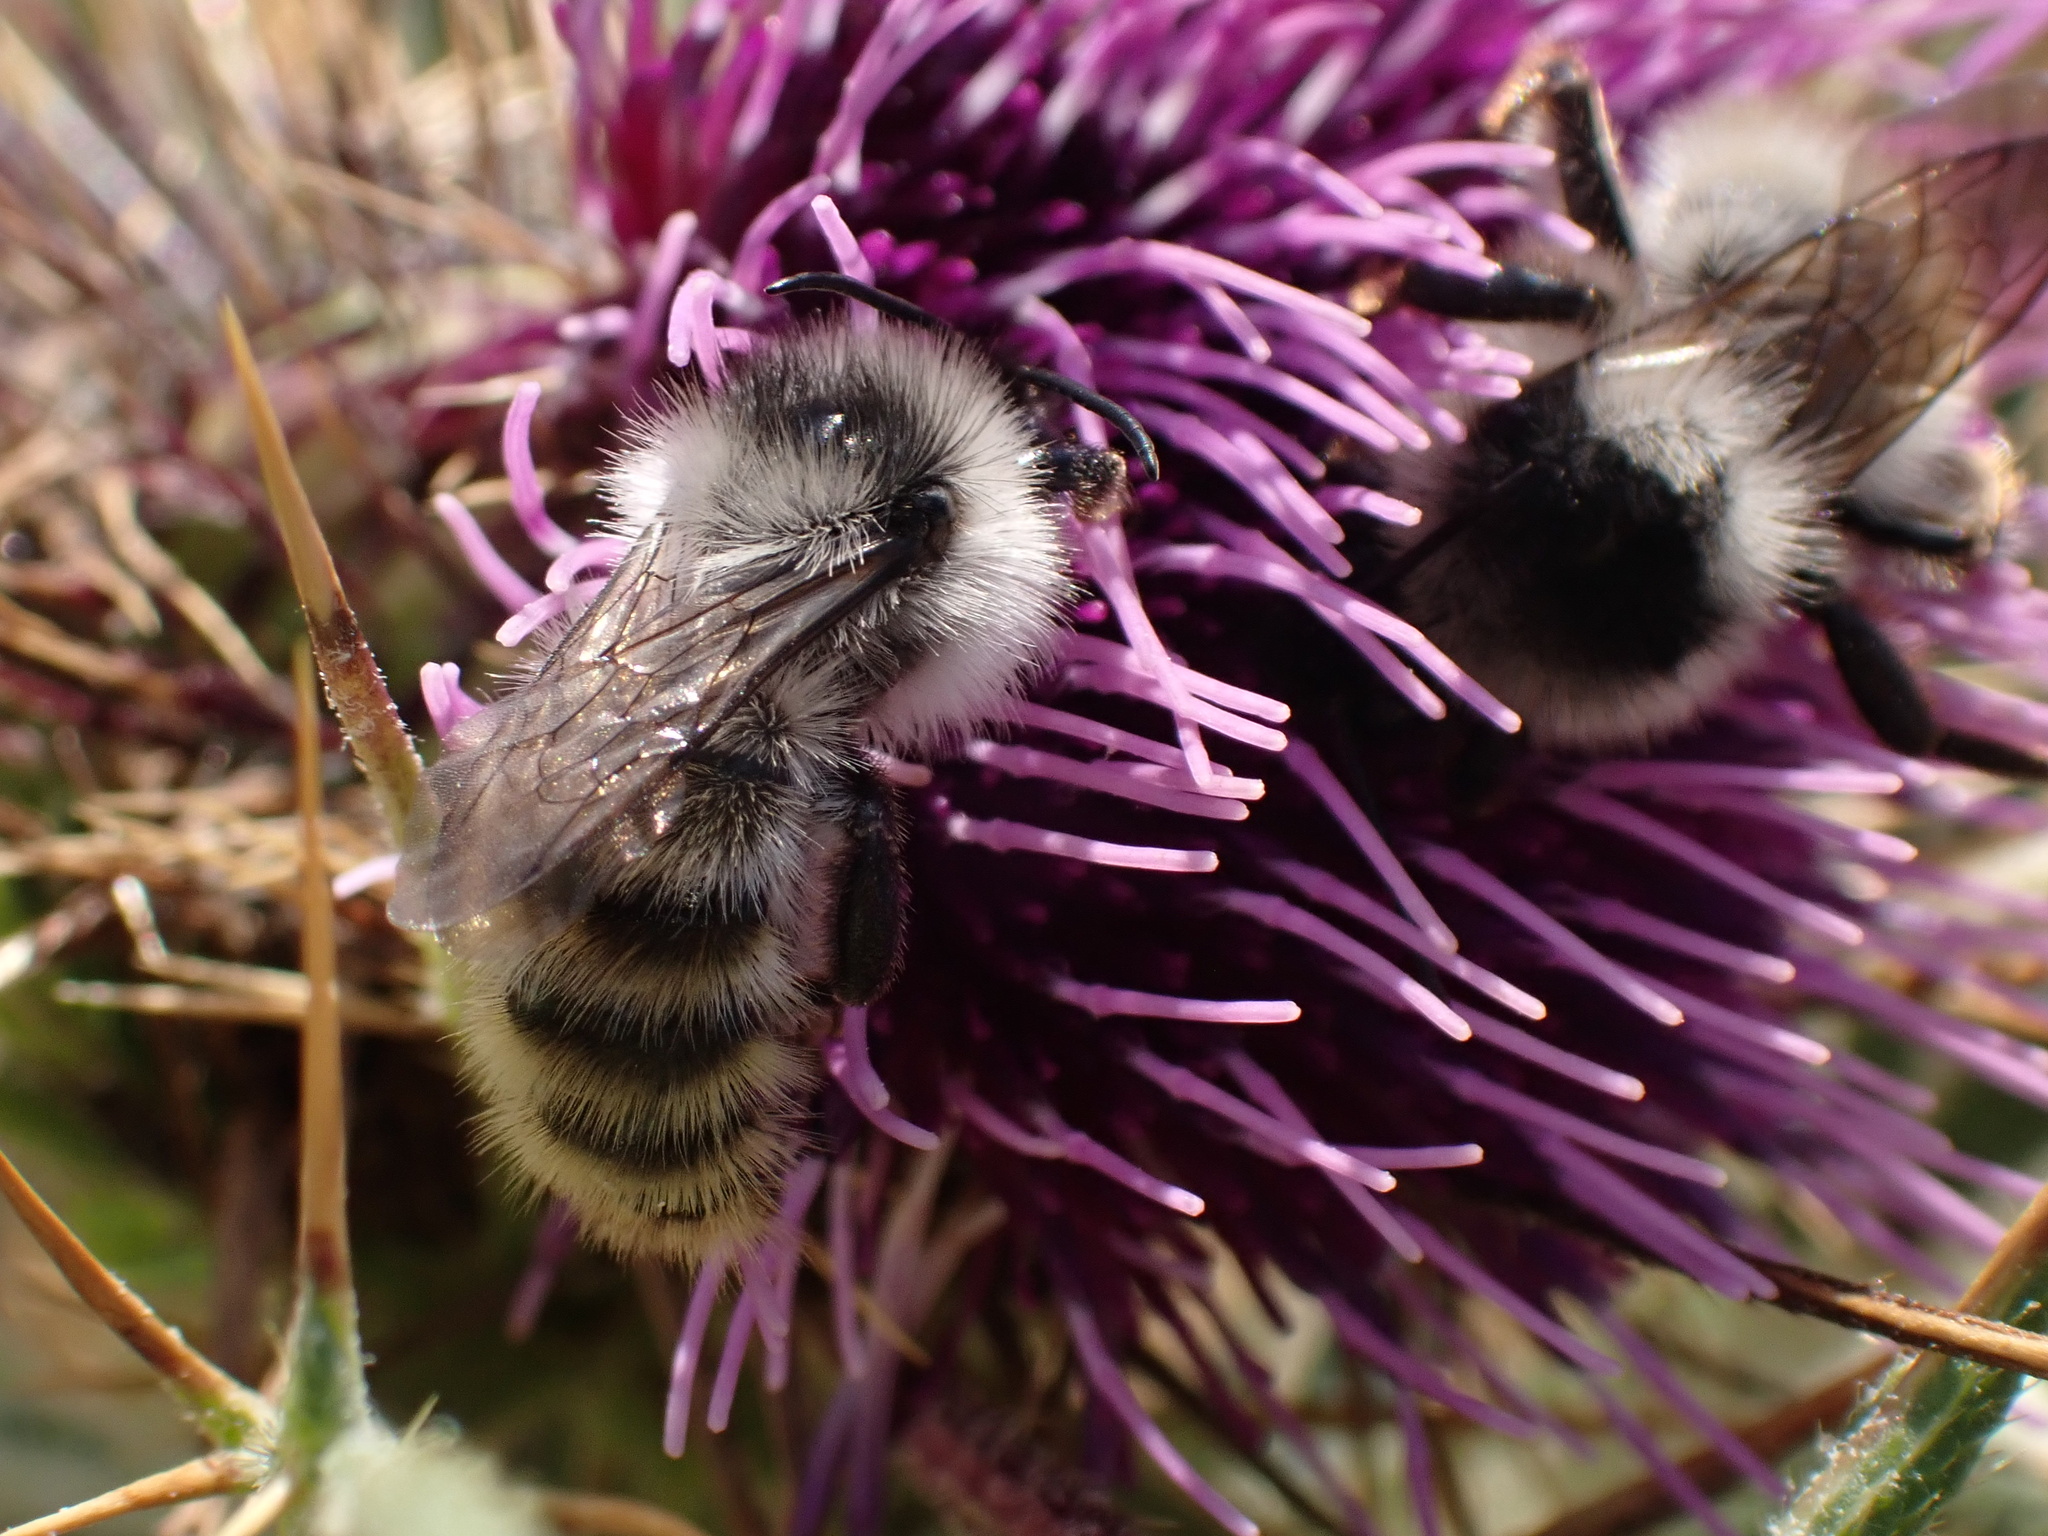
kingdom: Animalia
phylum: Arthropoda
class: Insecta
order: Hymenoptera
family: Apidae
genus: Bombus
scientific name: Bombus mesomelas
